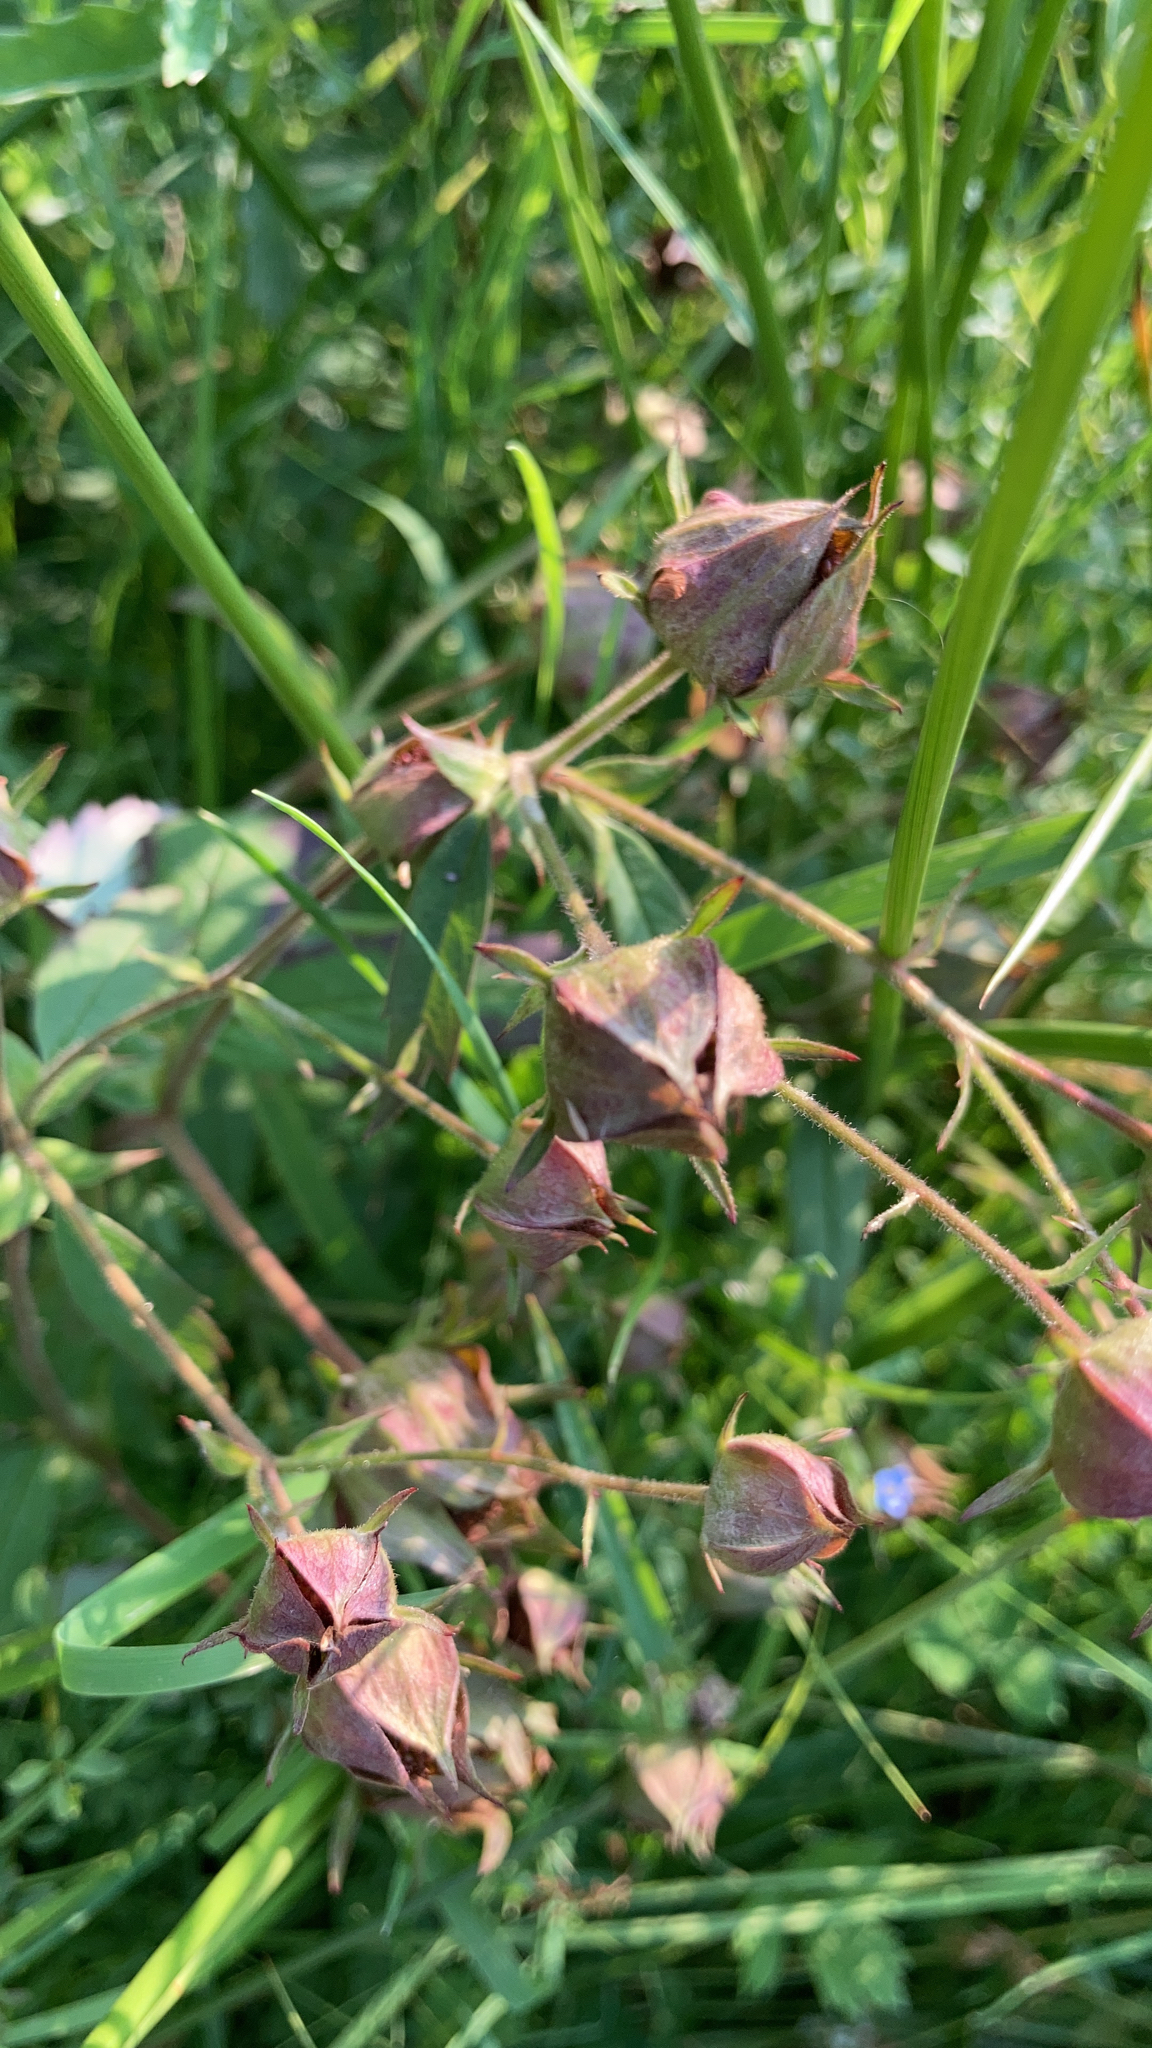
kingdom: Plantae
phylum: Tracheophyta
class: Magnoliopsida
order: Rosales
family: Rosaceae
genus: Comarum
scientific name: Comarum palustre
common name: Marsh cinquefoil
